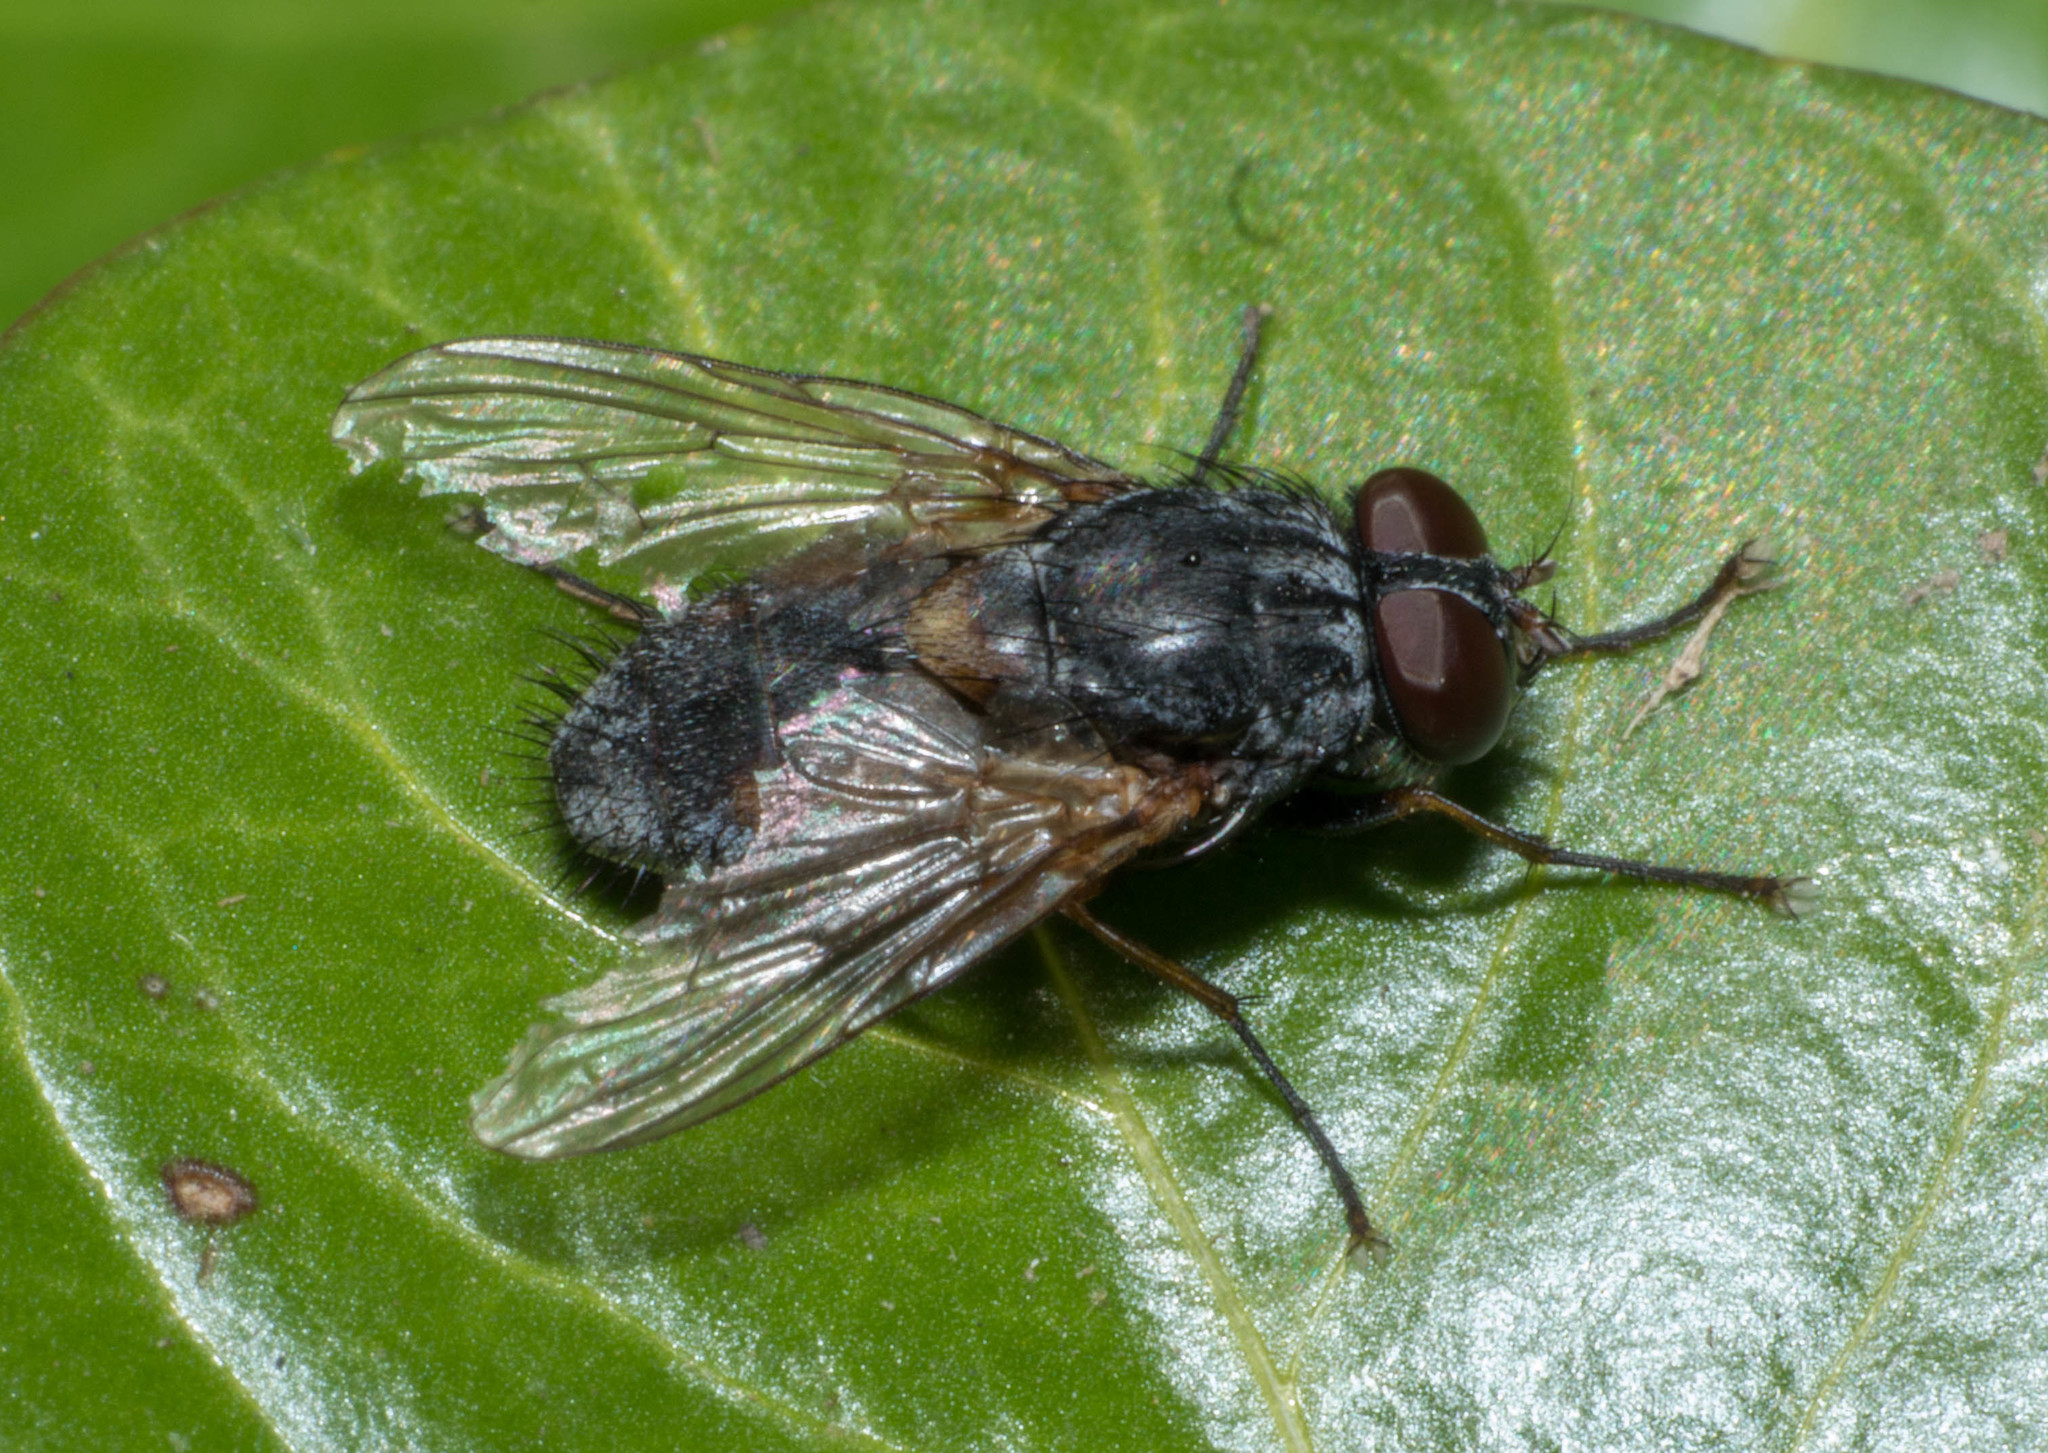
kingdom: Animalia
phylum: Arthropoda
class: Insecta
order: Diptera
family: Muscidae
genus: Muscina
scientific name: Muscina stabulans
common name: False stable fly
